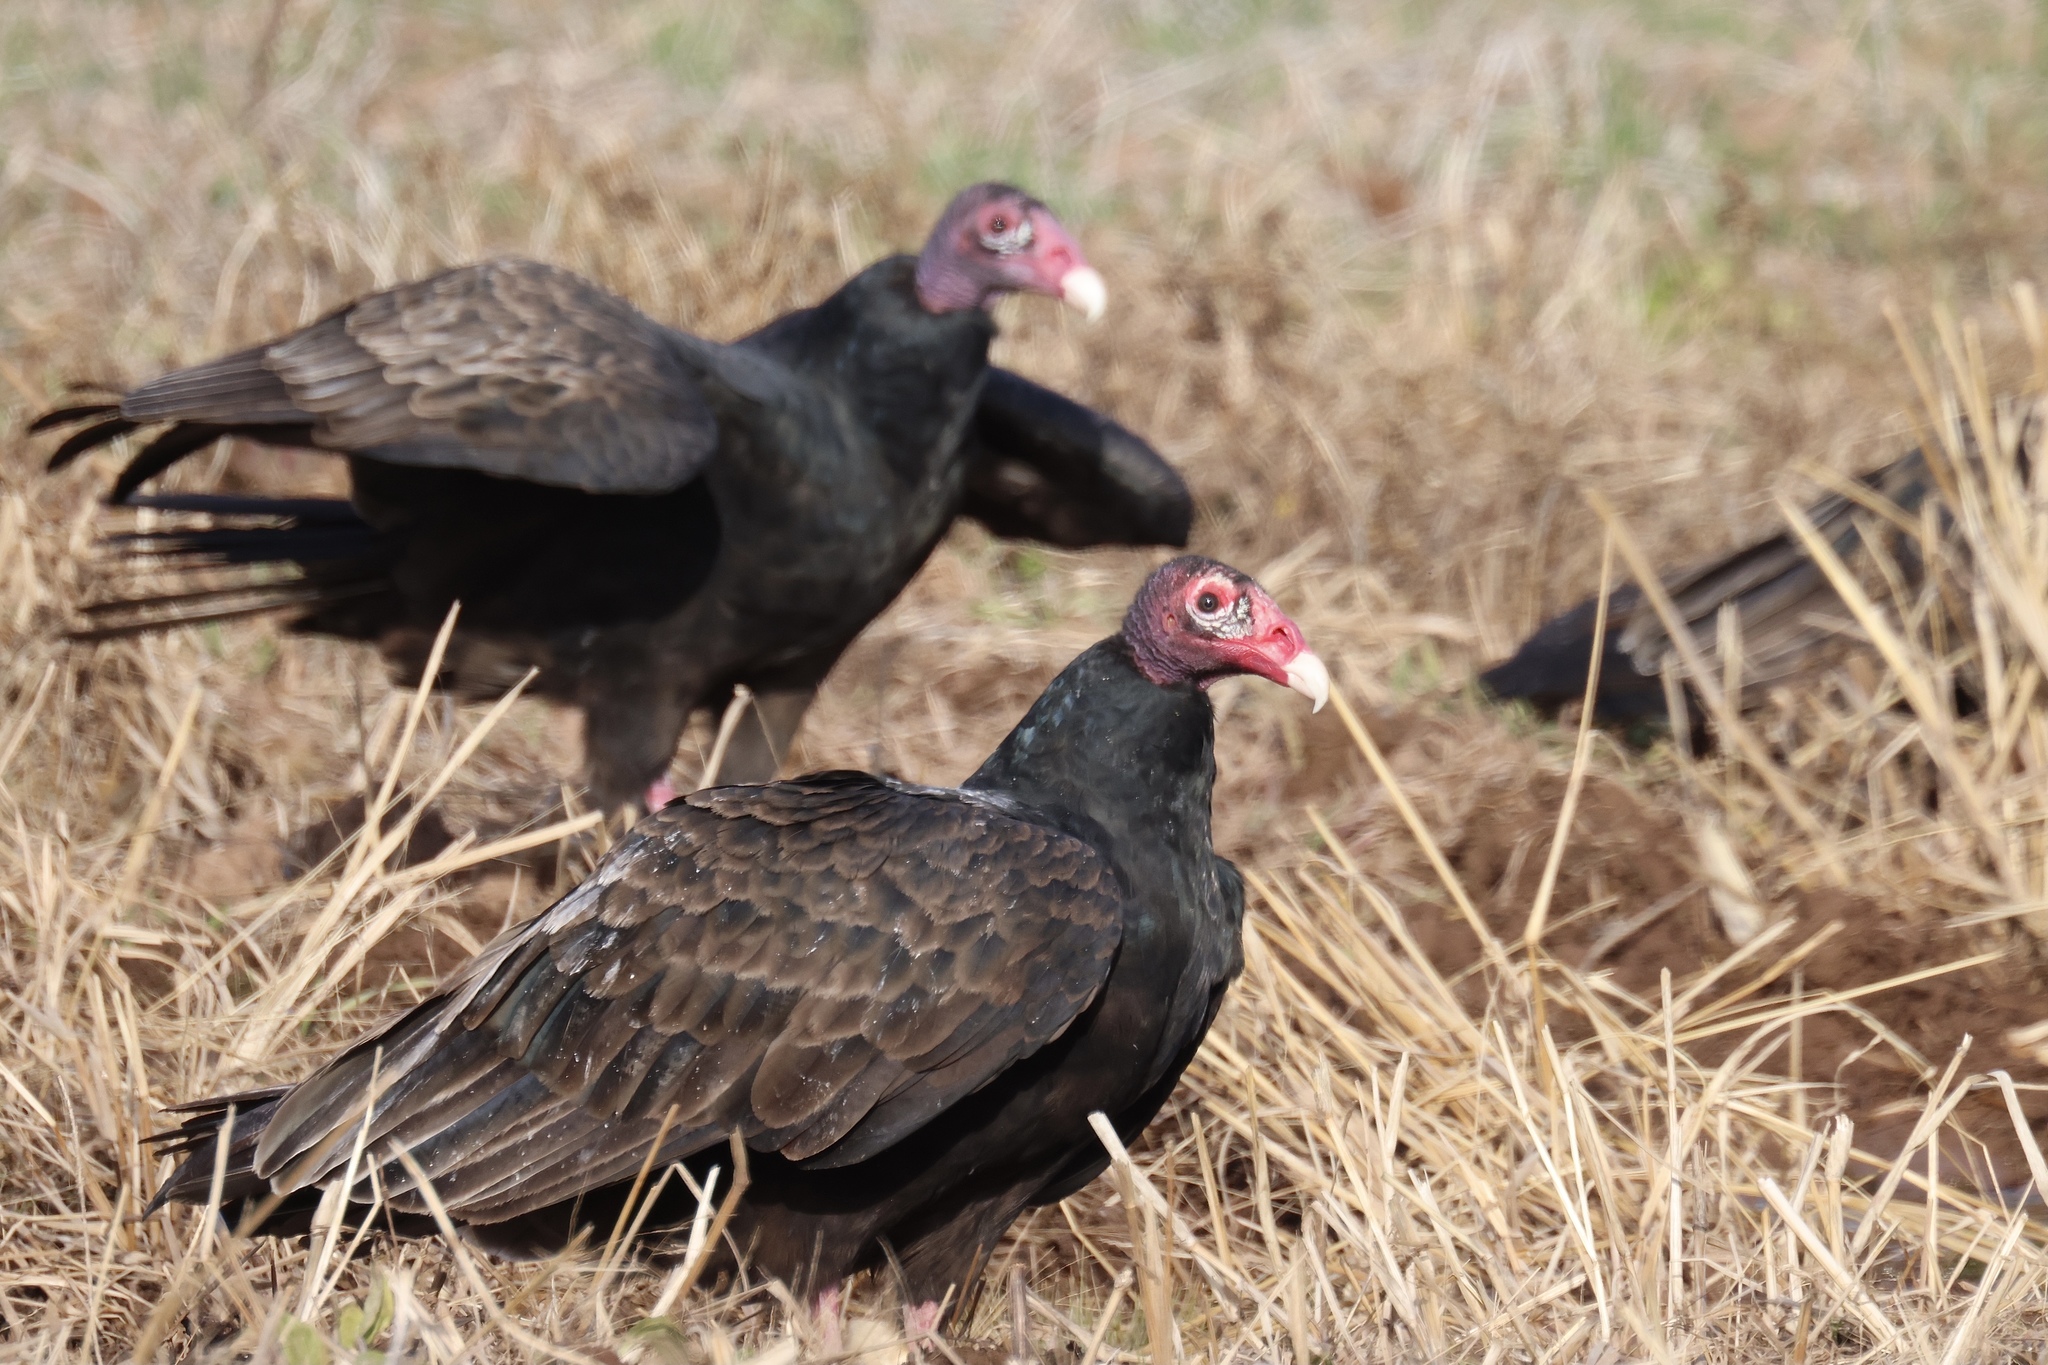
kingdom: Animalia
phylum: Chordata
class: Aves
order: Accipitriformes
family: Cathartidae
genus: Cathartes
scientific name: Cathartes aura
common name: Turkey vulture
